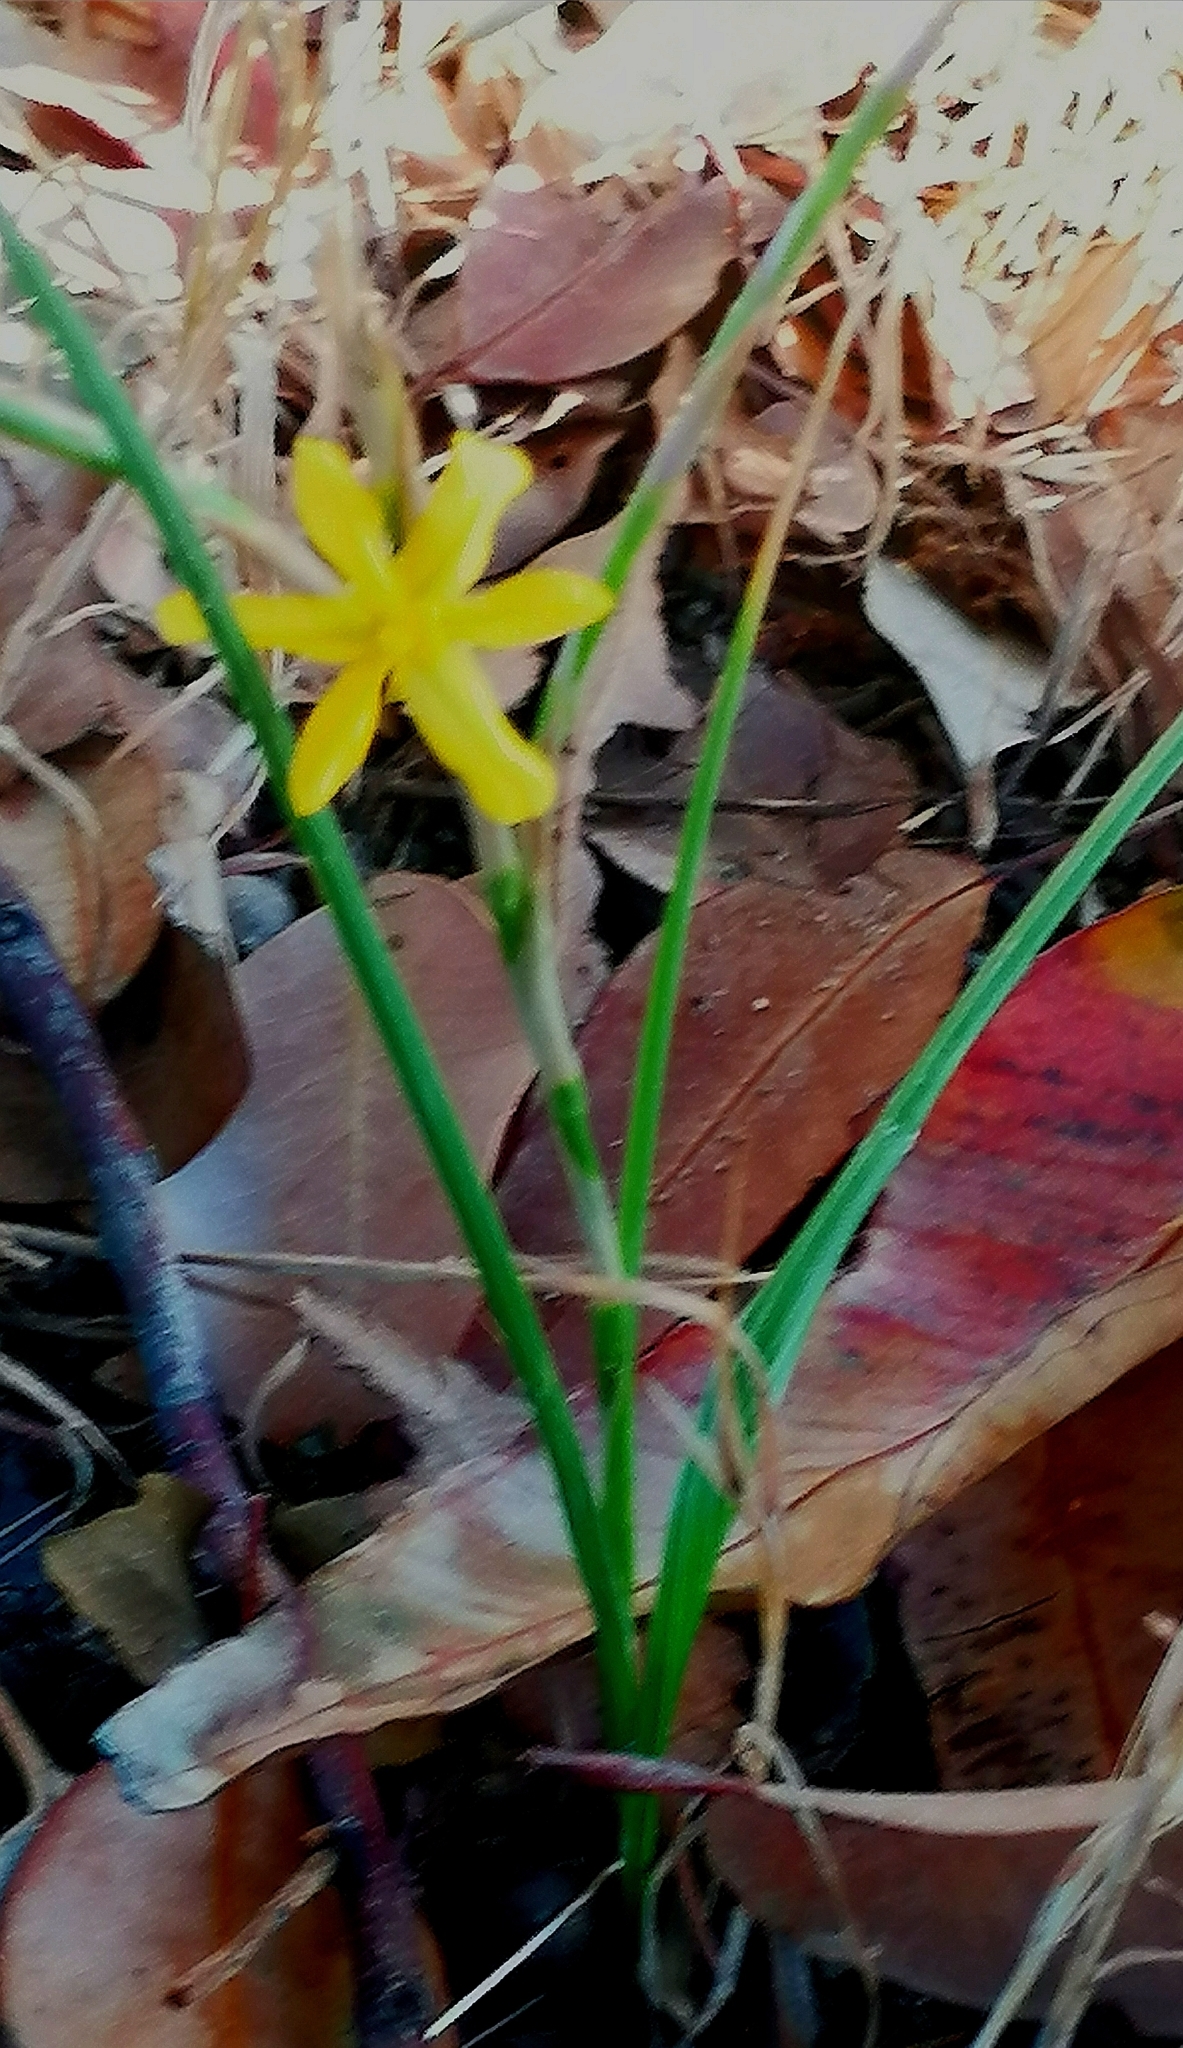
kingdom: Plantae
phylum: Tracheophyta
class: Liliopsida
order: Asparagales
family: Iridaceae
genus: Moraea
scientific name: Moraea lewisiae
